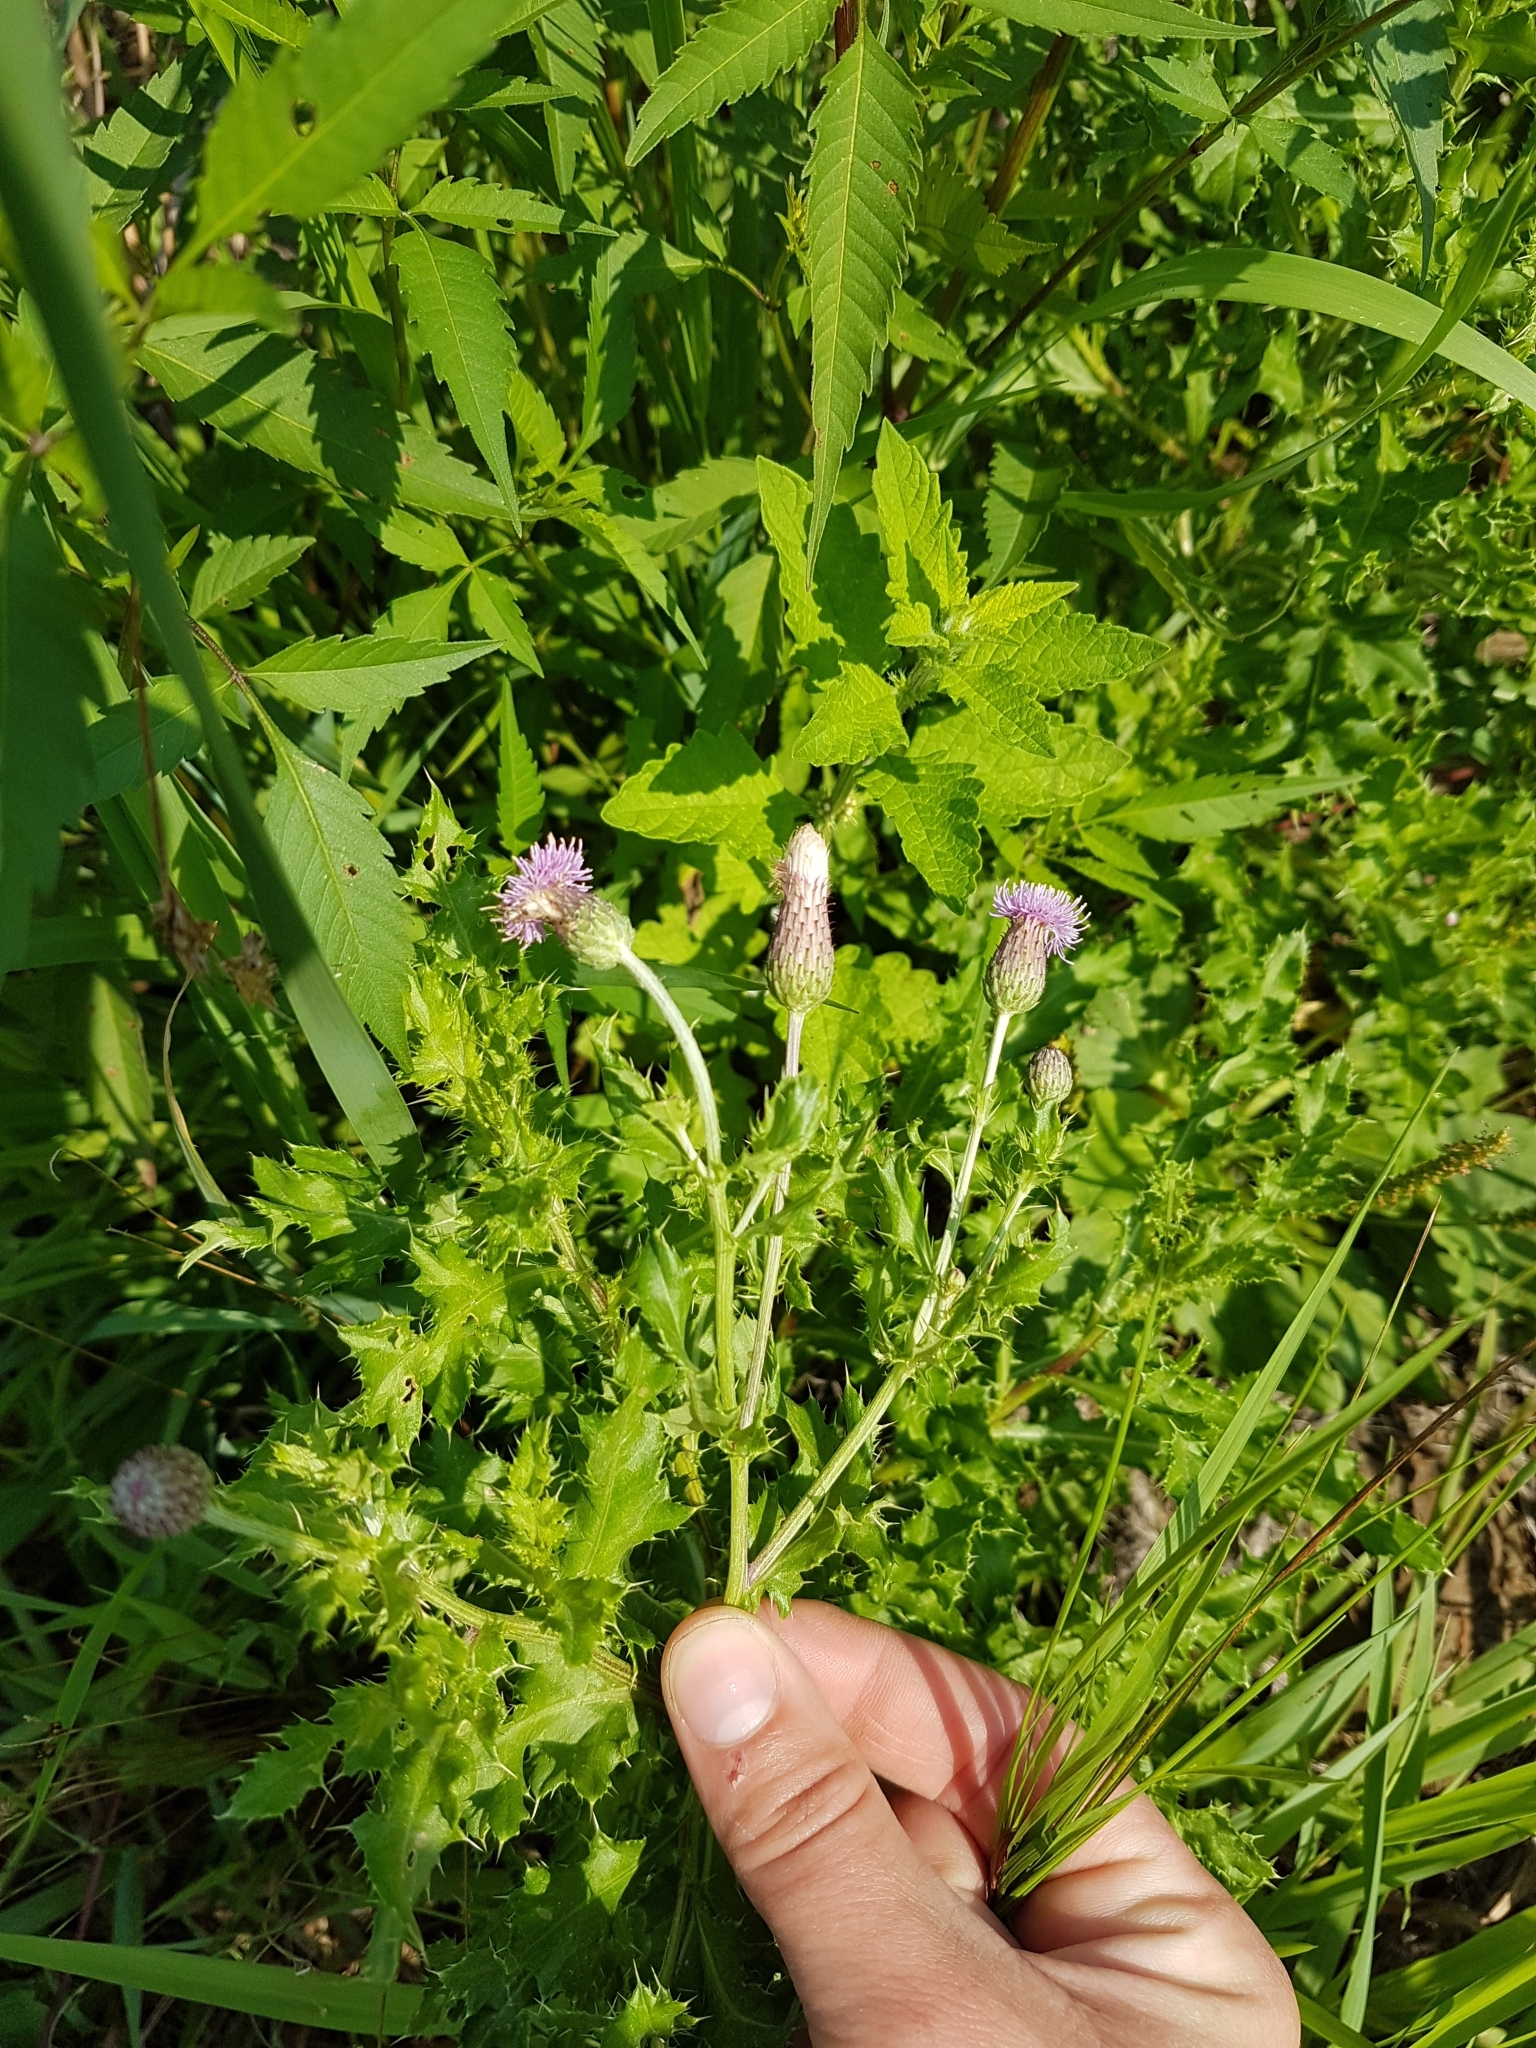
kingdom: Plantae
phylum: Tracheophyta
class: Magnoliopsida
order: Asterales
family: Asteraceae
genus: Cirsium
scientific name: Cirsium arvense
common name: Creeping thistle
